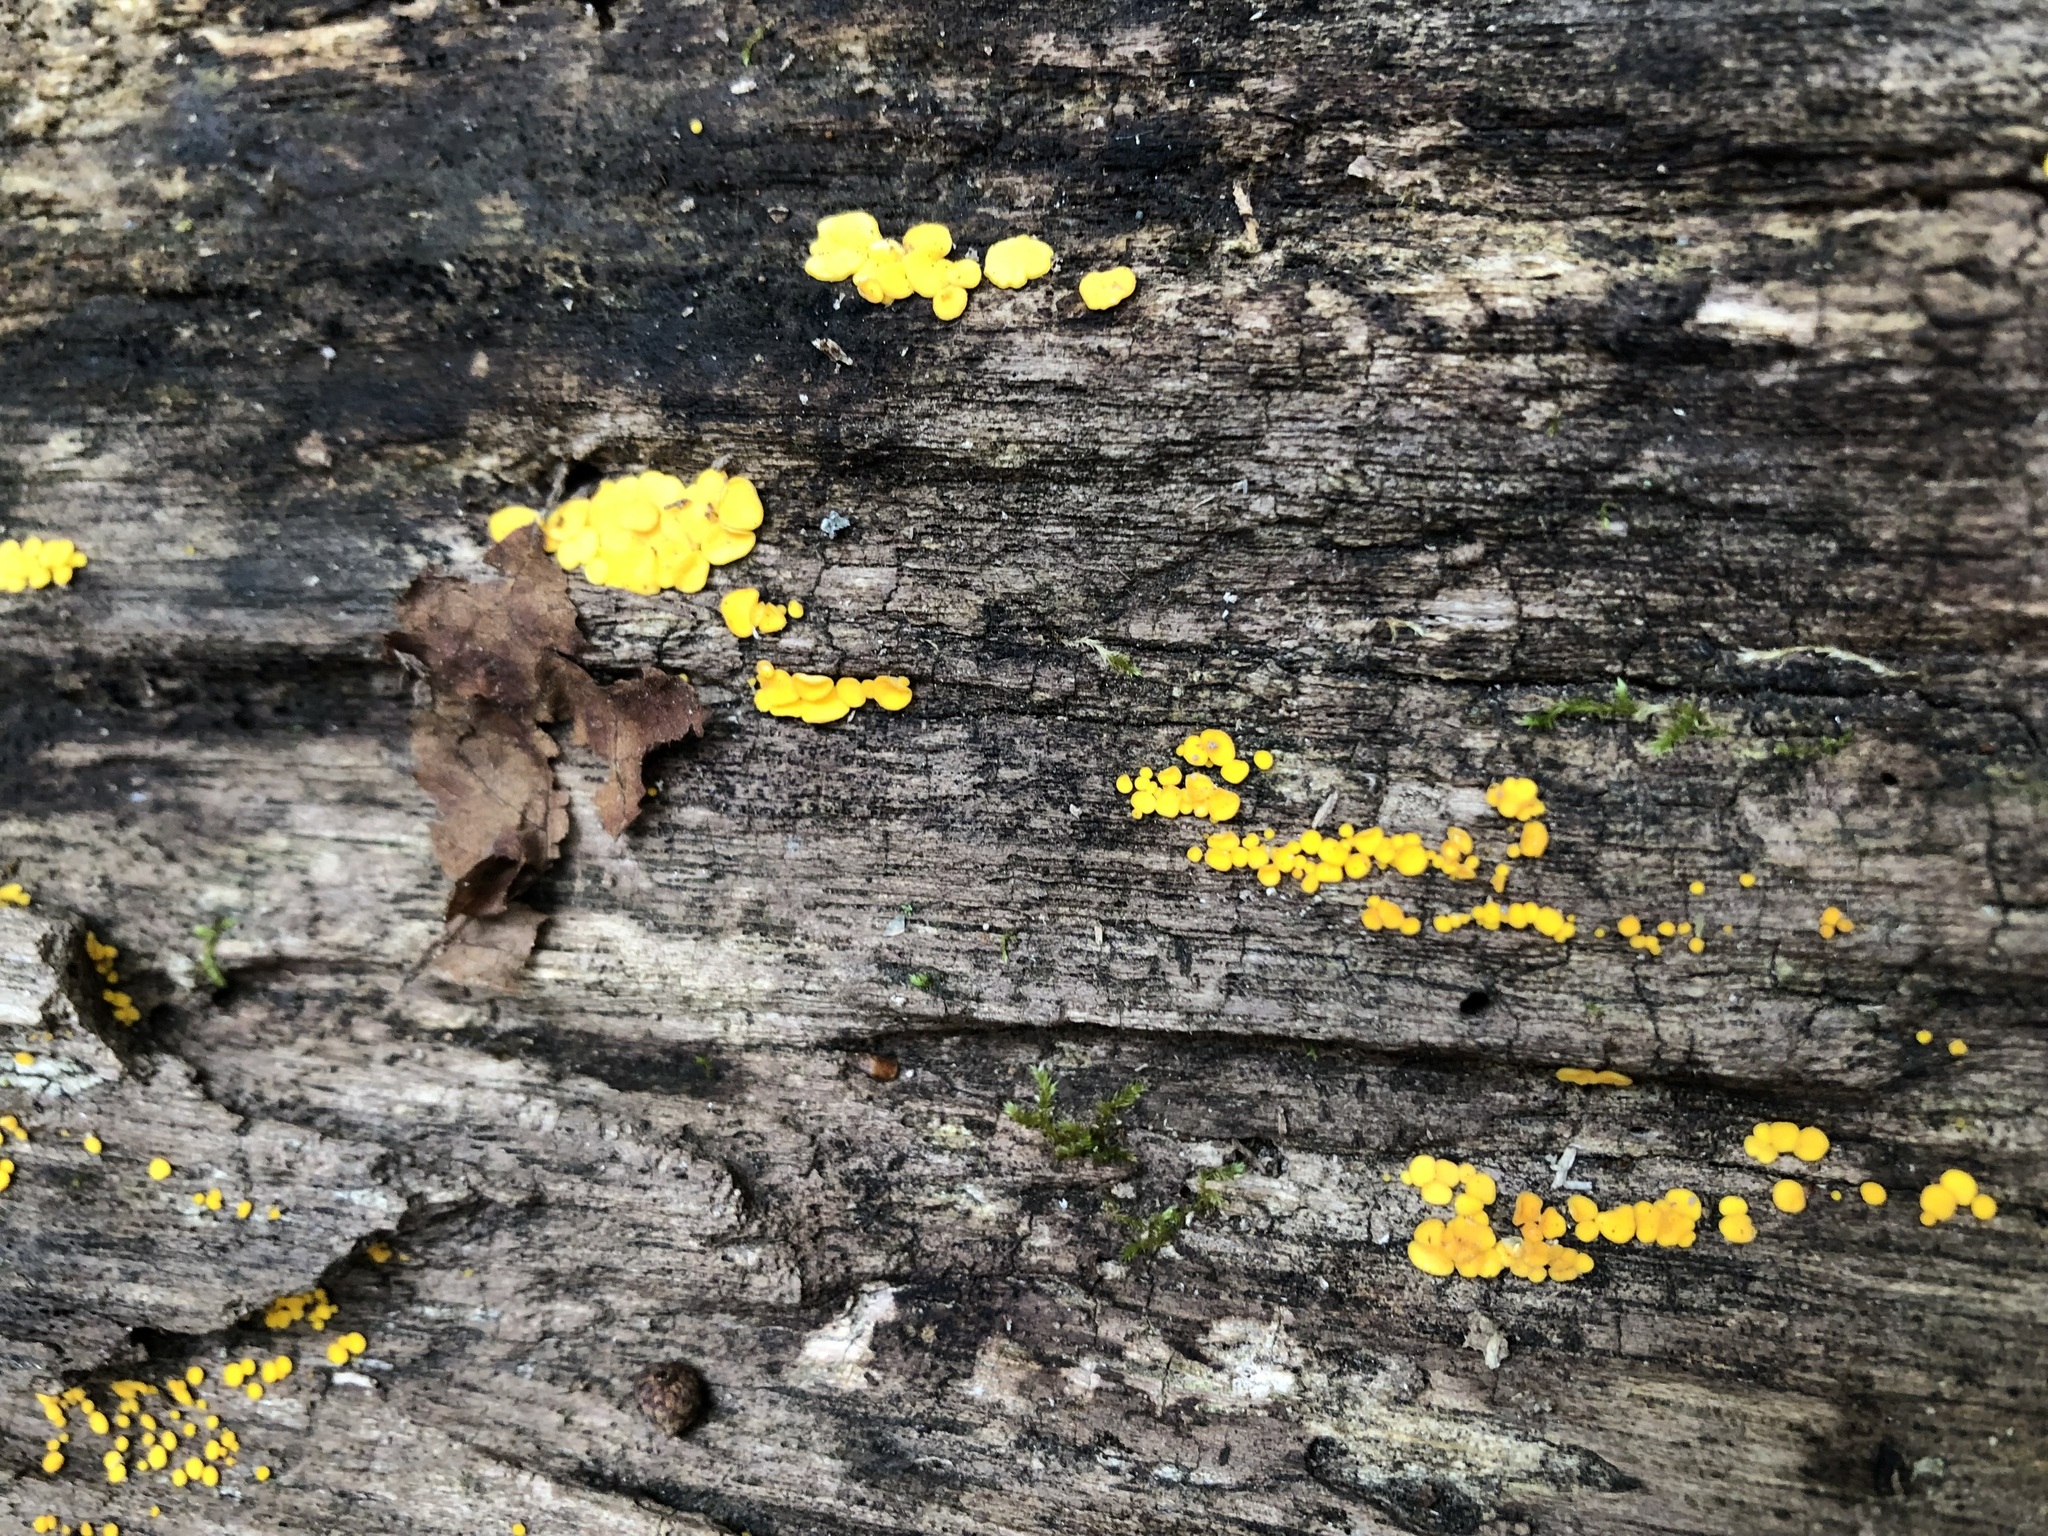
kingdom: Fungi
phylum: Ascomycota
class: Leotiomycetes
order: Helotiales
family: Pezizellaceae
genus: Calycina
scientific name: Calycina citrina
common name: Yellow fairy cups
